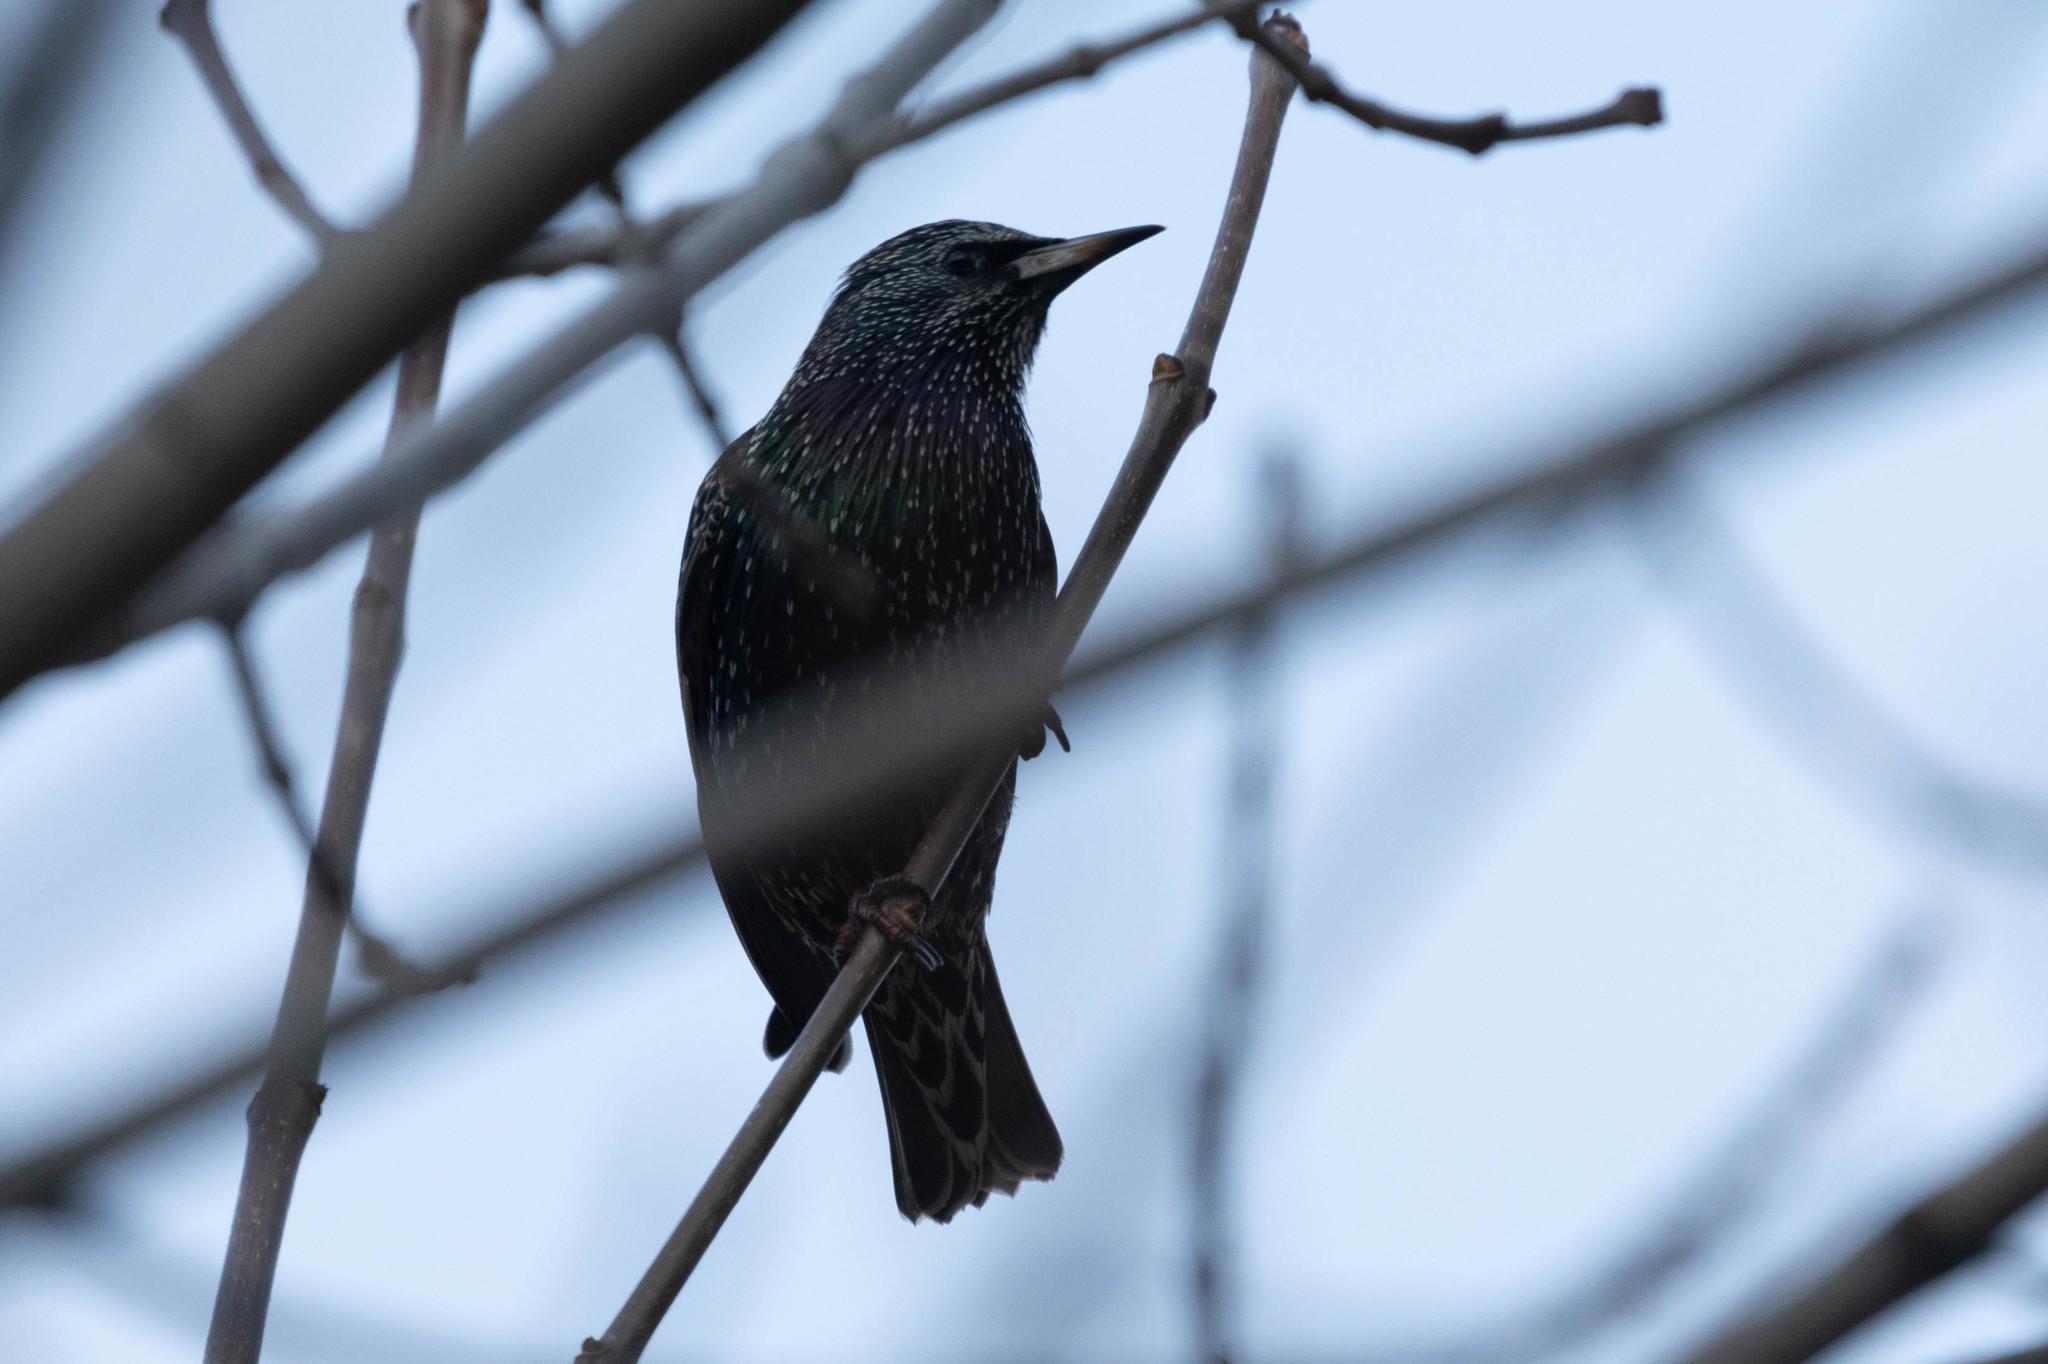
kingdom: Animalia
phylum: Chordata
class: Aves
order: Passeriformes
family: Sturnidae
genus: Sturnus
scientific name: Sturnus vulgaris
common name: Common starling
